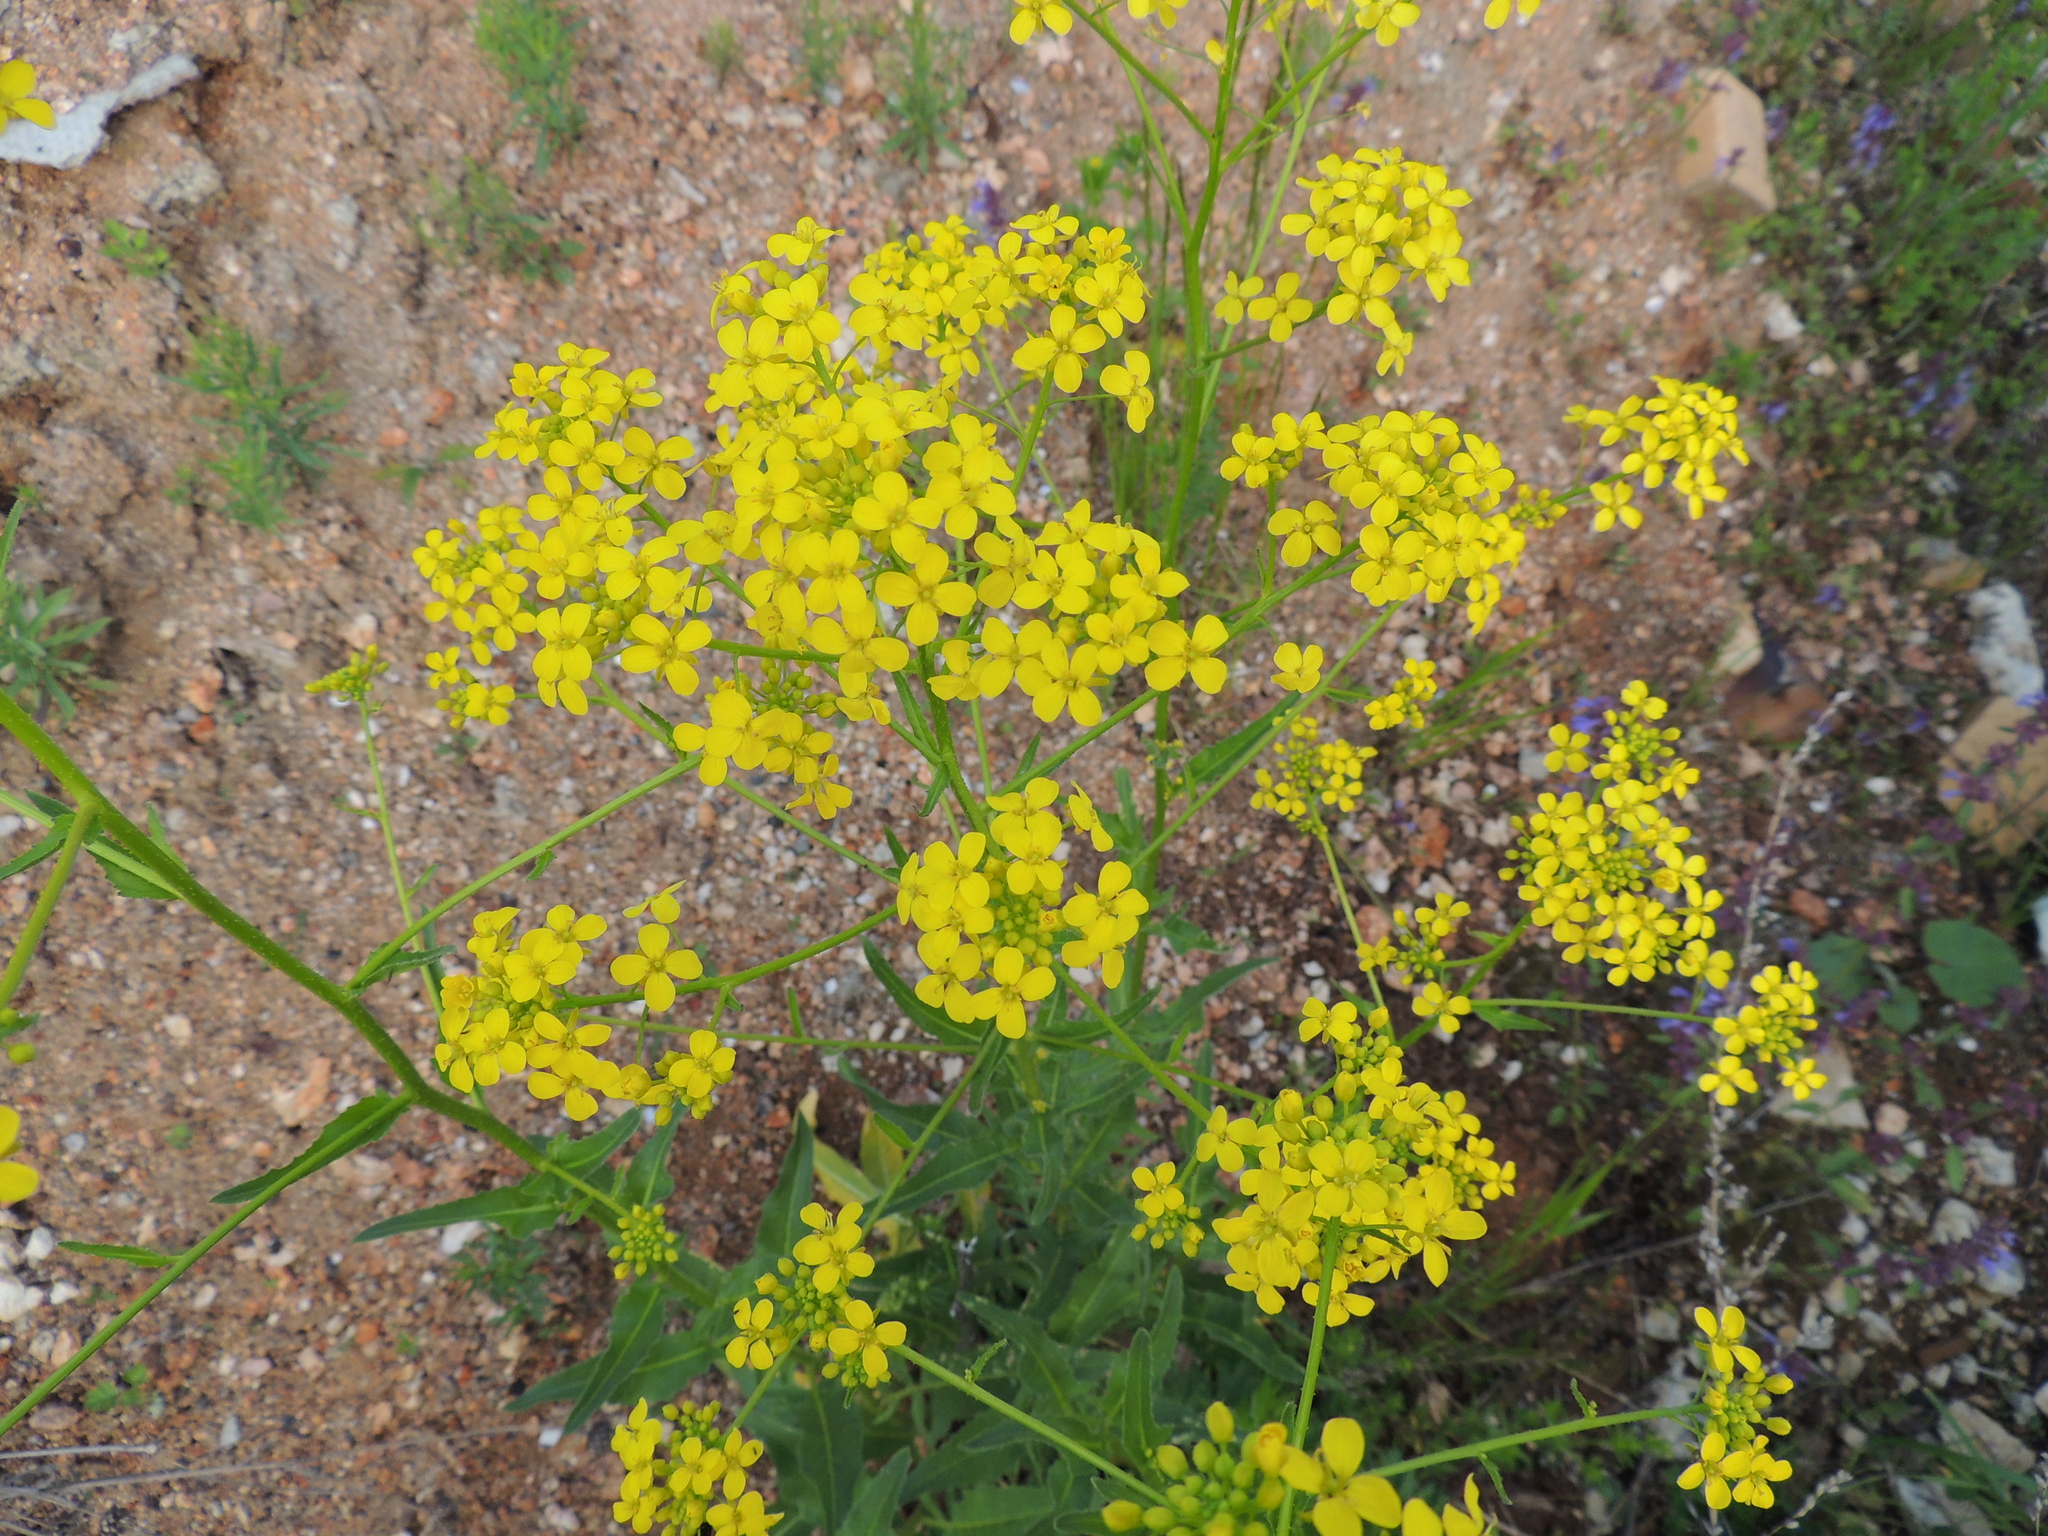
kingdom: Plantae
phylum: Tracheophyta
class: Magnoliopsida
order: Brassicales
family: Brassicaceae
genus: Bunias
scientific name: Bunias orientalis
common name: Warty-cabbage
